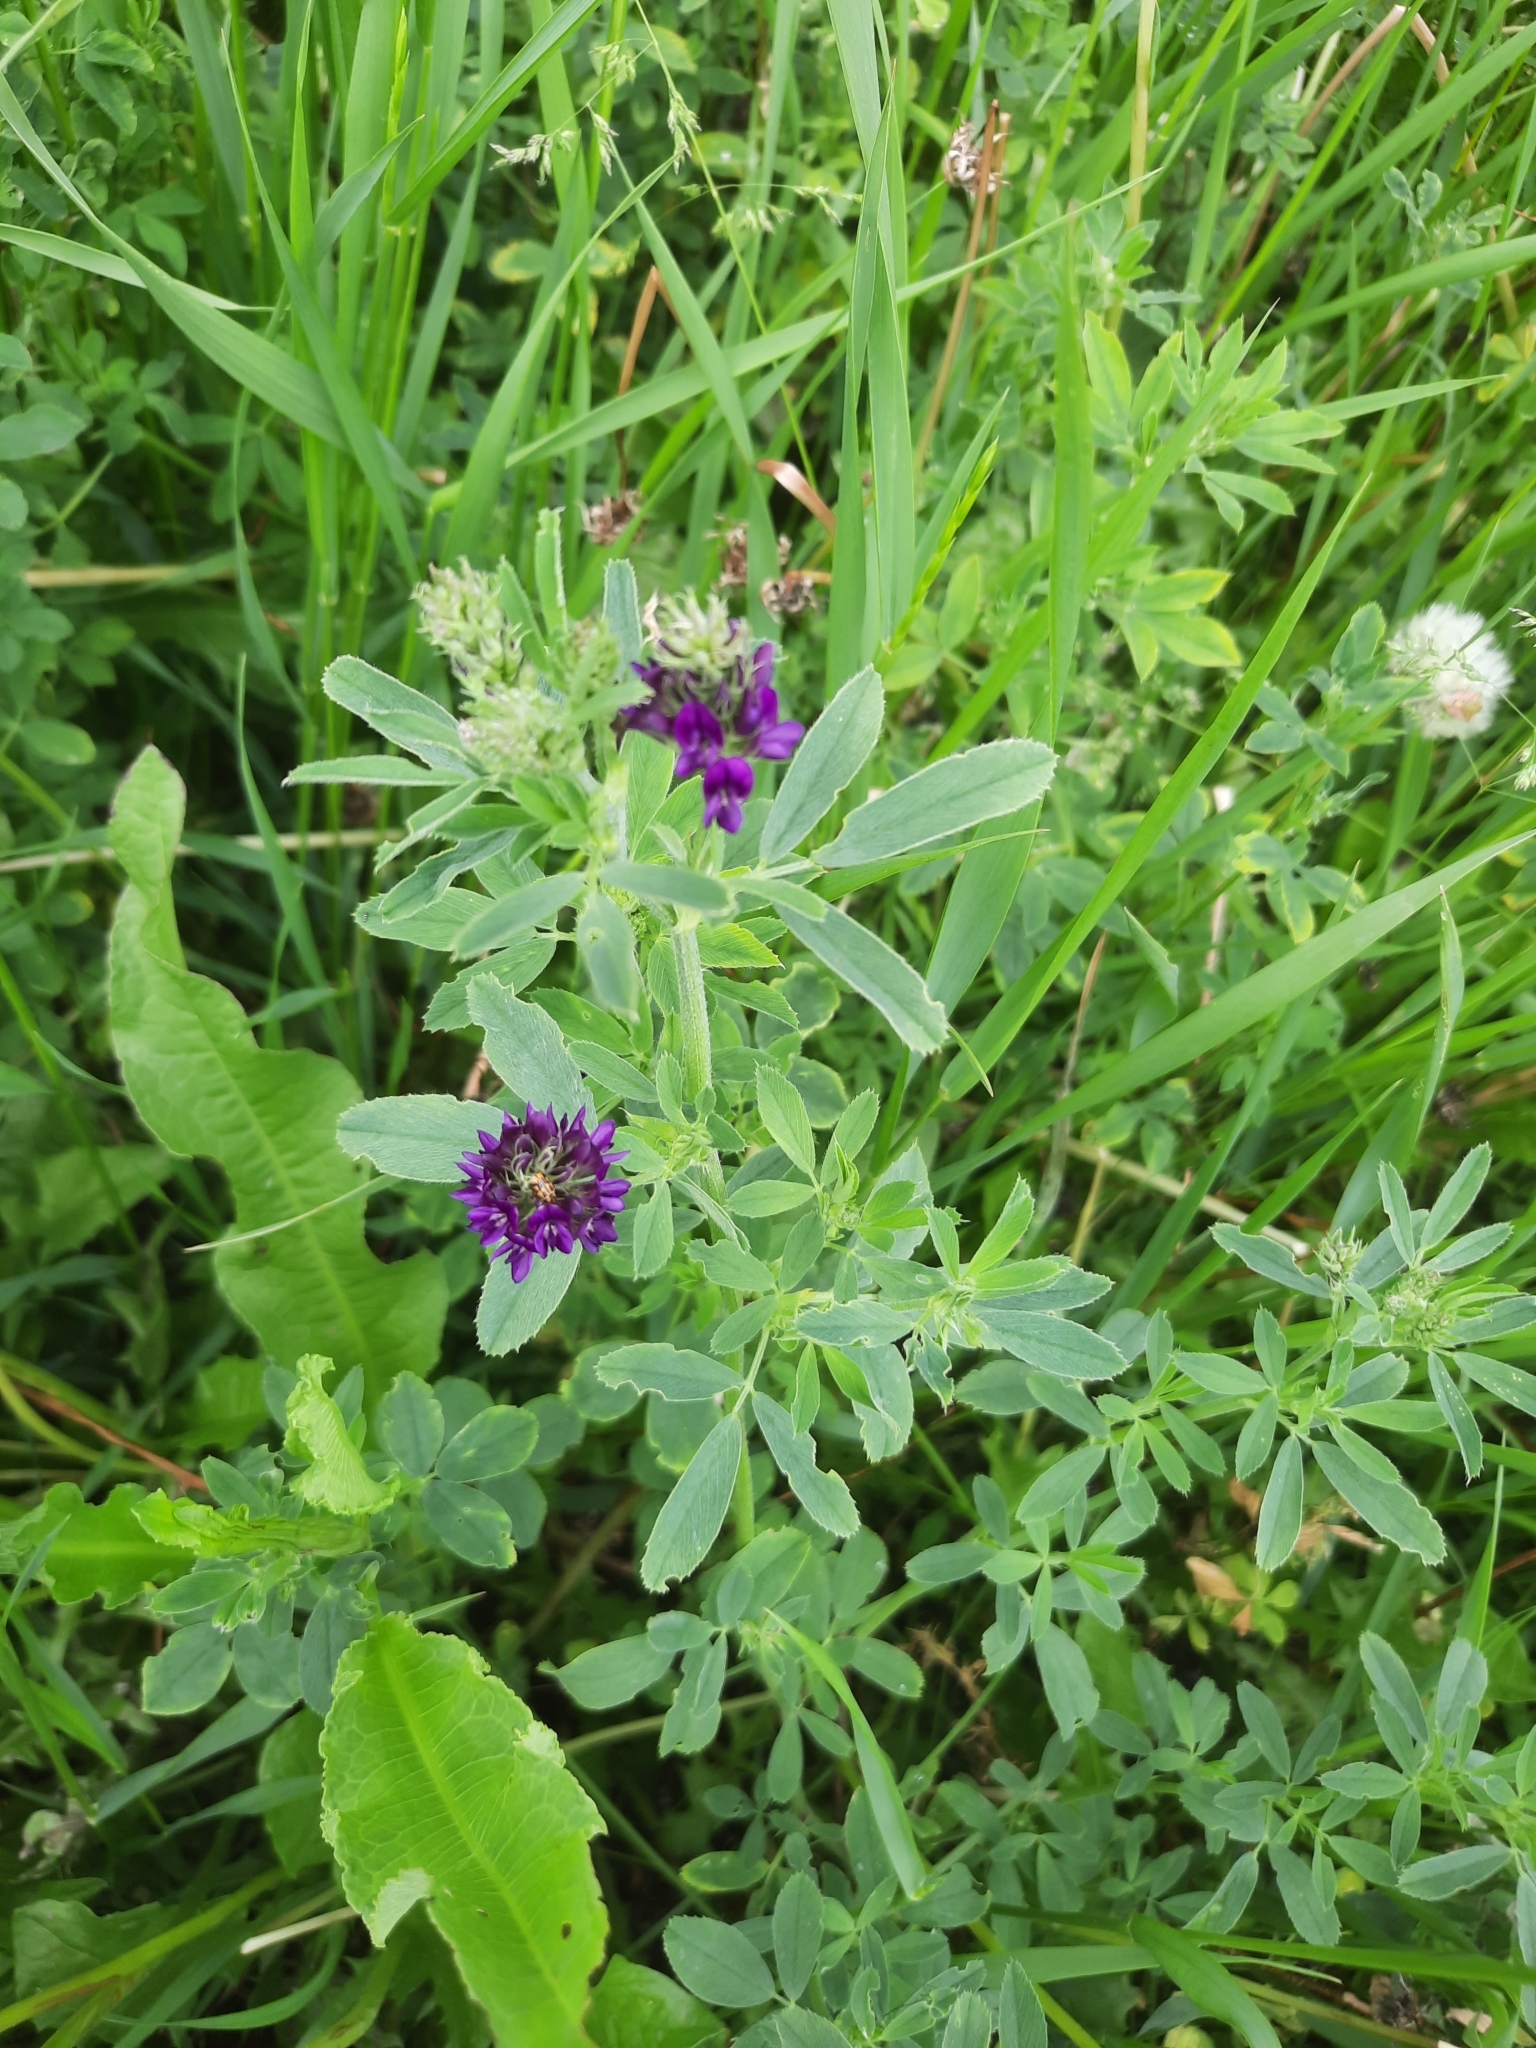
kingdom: Plantae
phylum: Tracheophyta
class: Magnoliopsida
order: Fabales
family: Fabaceae
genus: Medicago
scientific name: Medicago varia
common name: Sand lucerne
